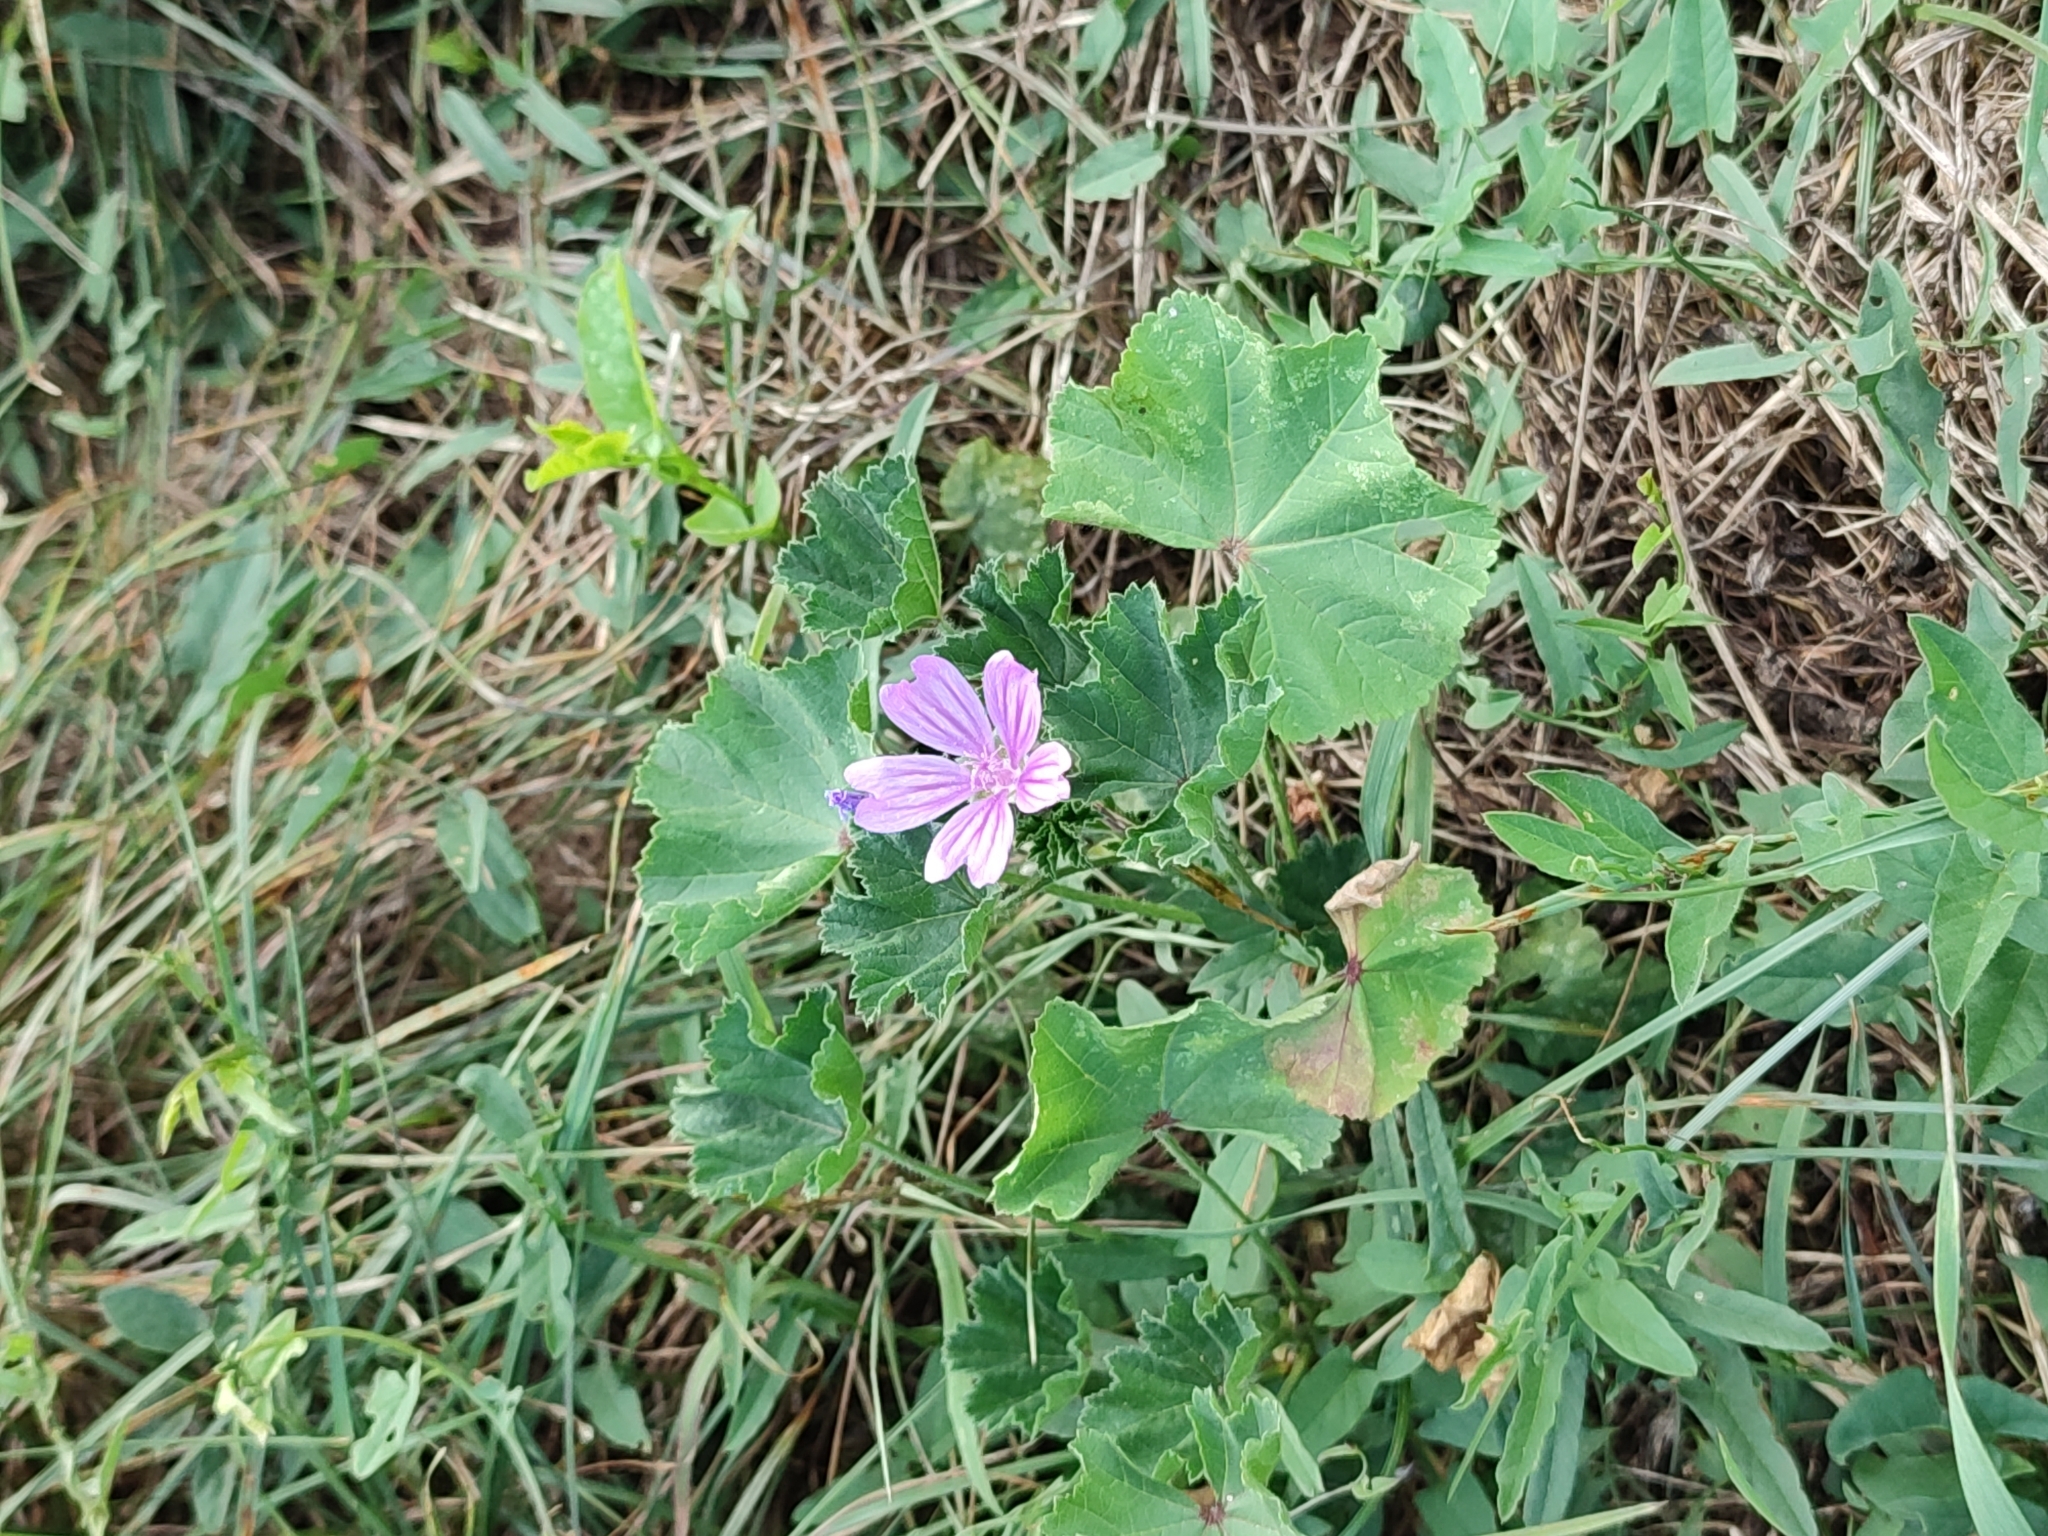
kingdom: Plantae
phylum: Tracheophyta
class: Magnoliopsida
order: Malvales
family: Malvaceae
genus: Malva
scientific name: Malva sylvestris
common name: Common mallow
